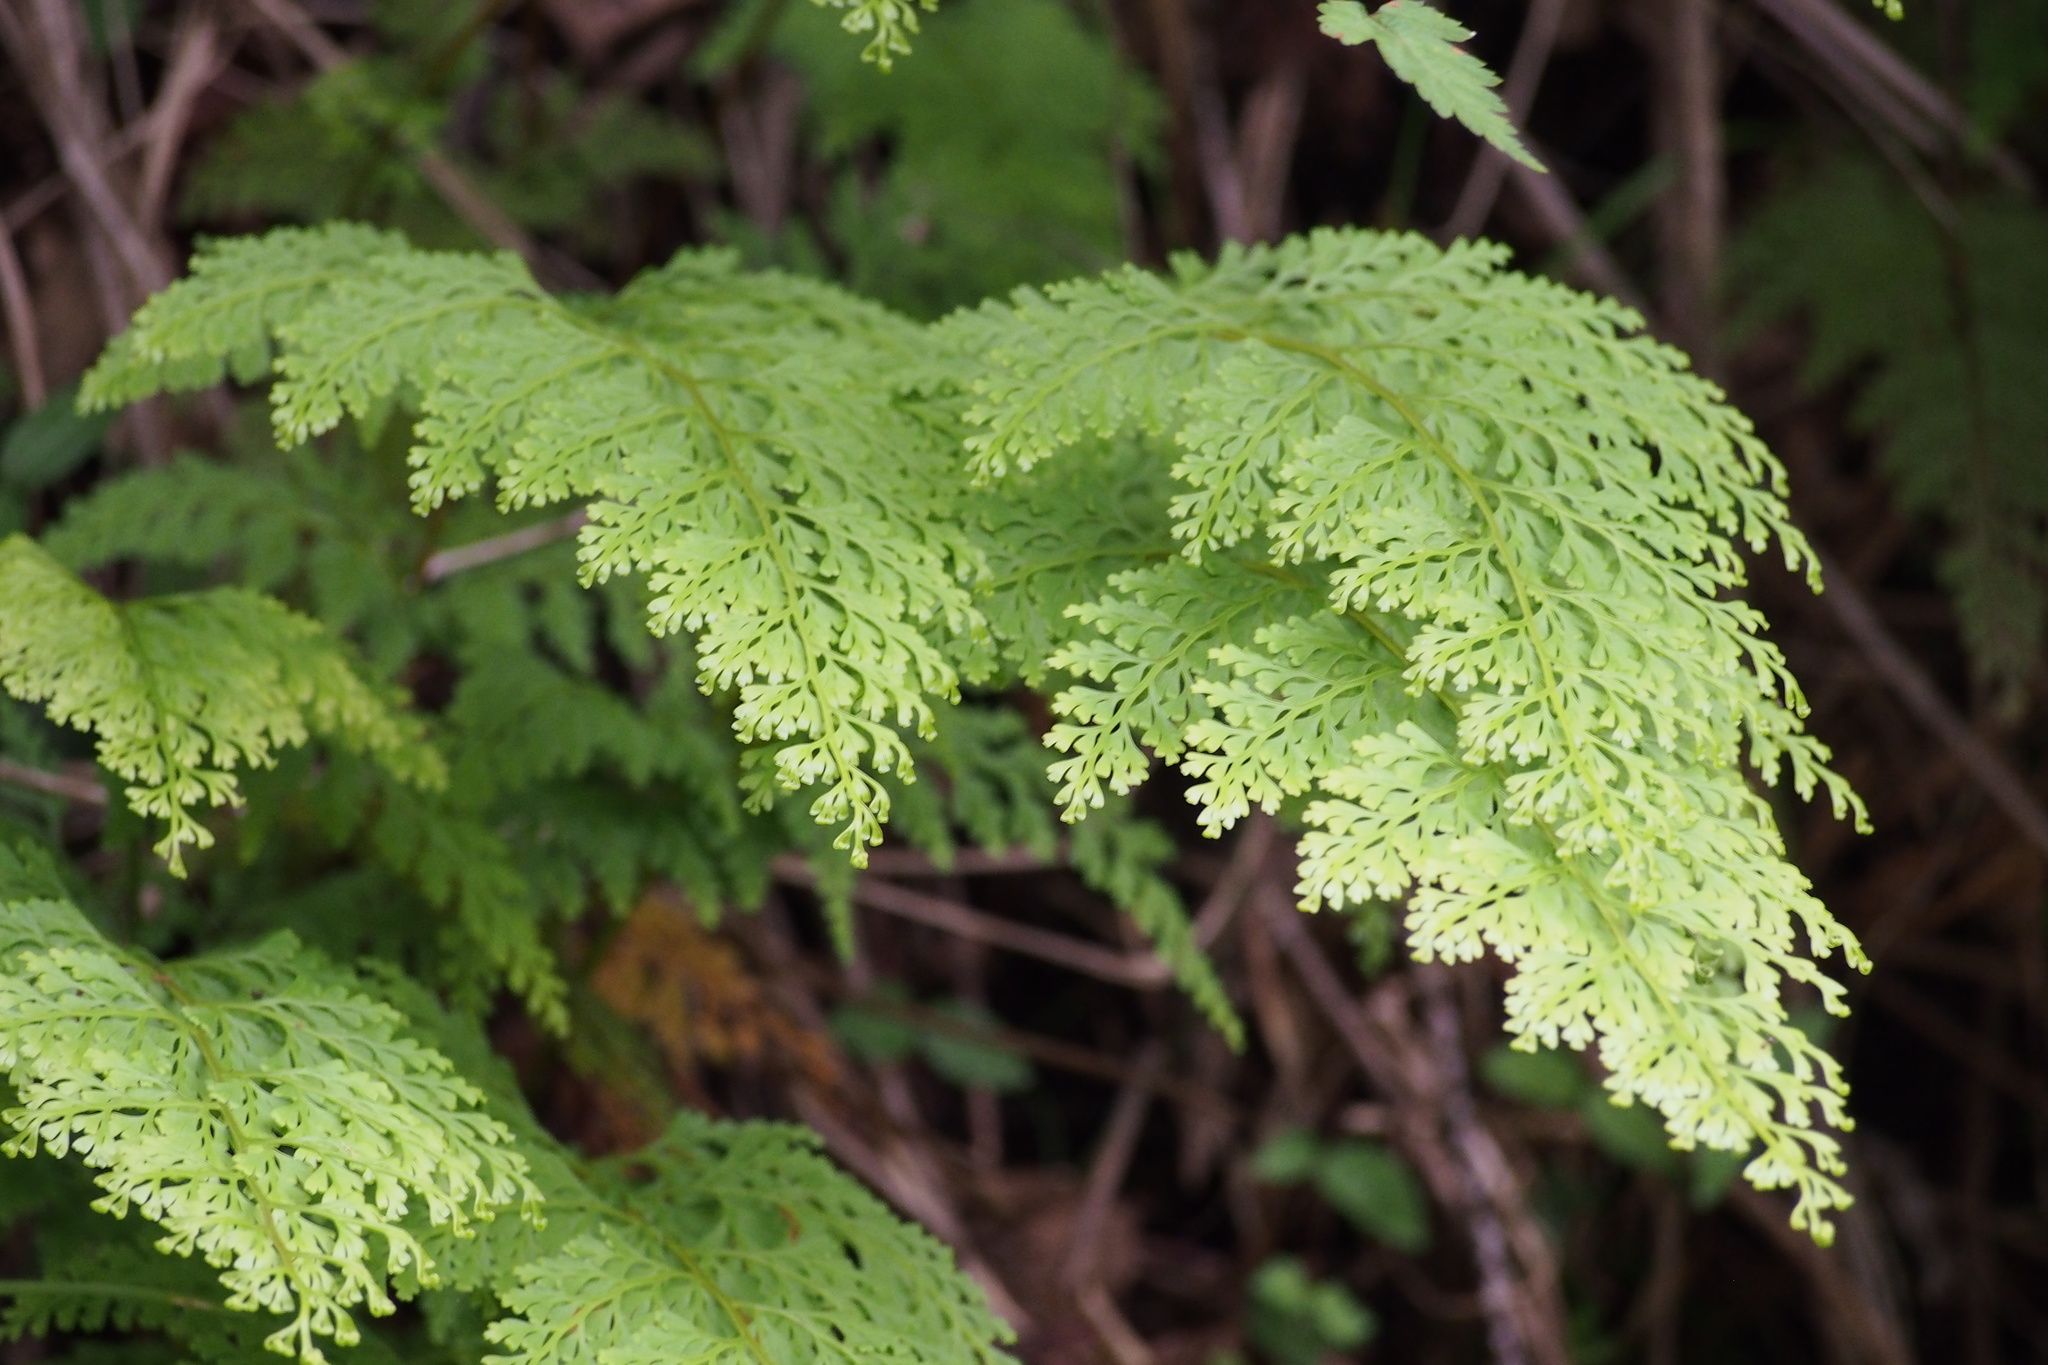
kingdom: Plantae
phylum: Tracheophyta
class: Polypodiopsida
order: Polypodiales
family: Lindsaeaceae
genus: Odontosoria
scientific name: Odontosoria chinensis
